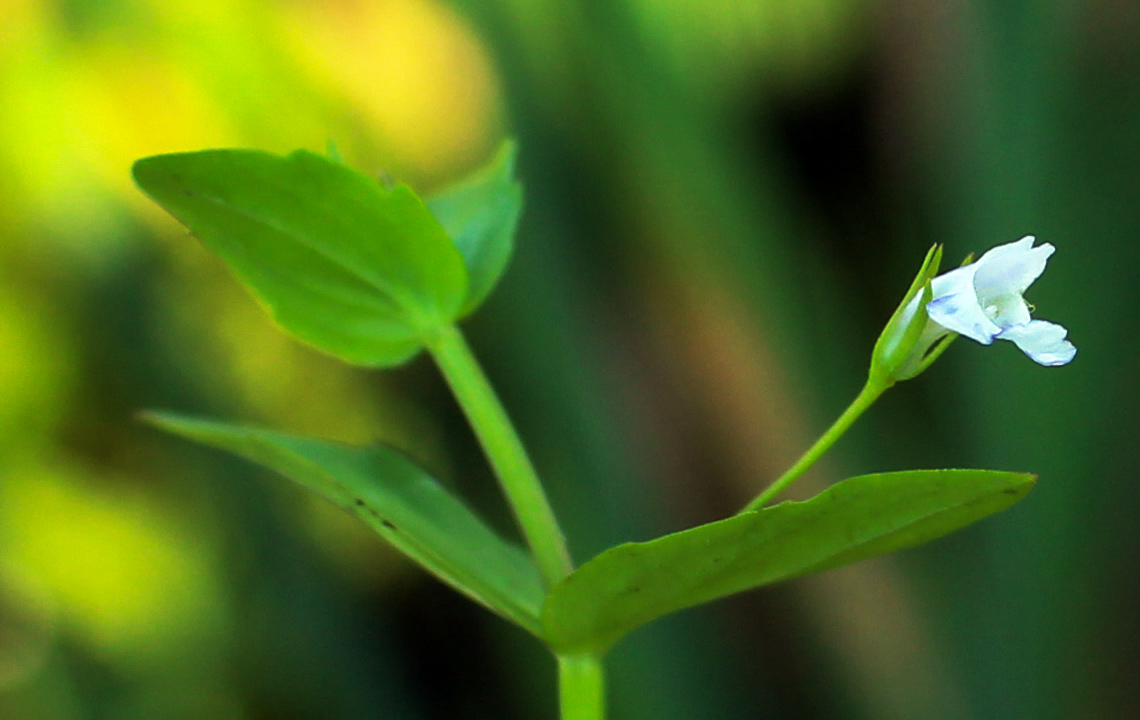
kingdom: Plantae
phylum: Tracheophyta
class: Magnoliopsida
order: Lamiales
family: Linderniaceae
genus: Lindernia
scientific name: Lindernia dubia
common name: Annual false pimpernel
